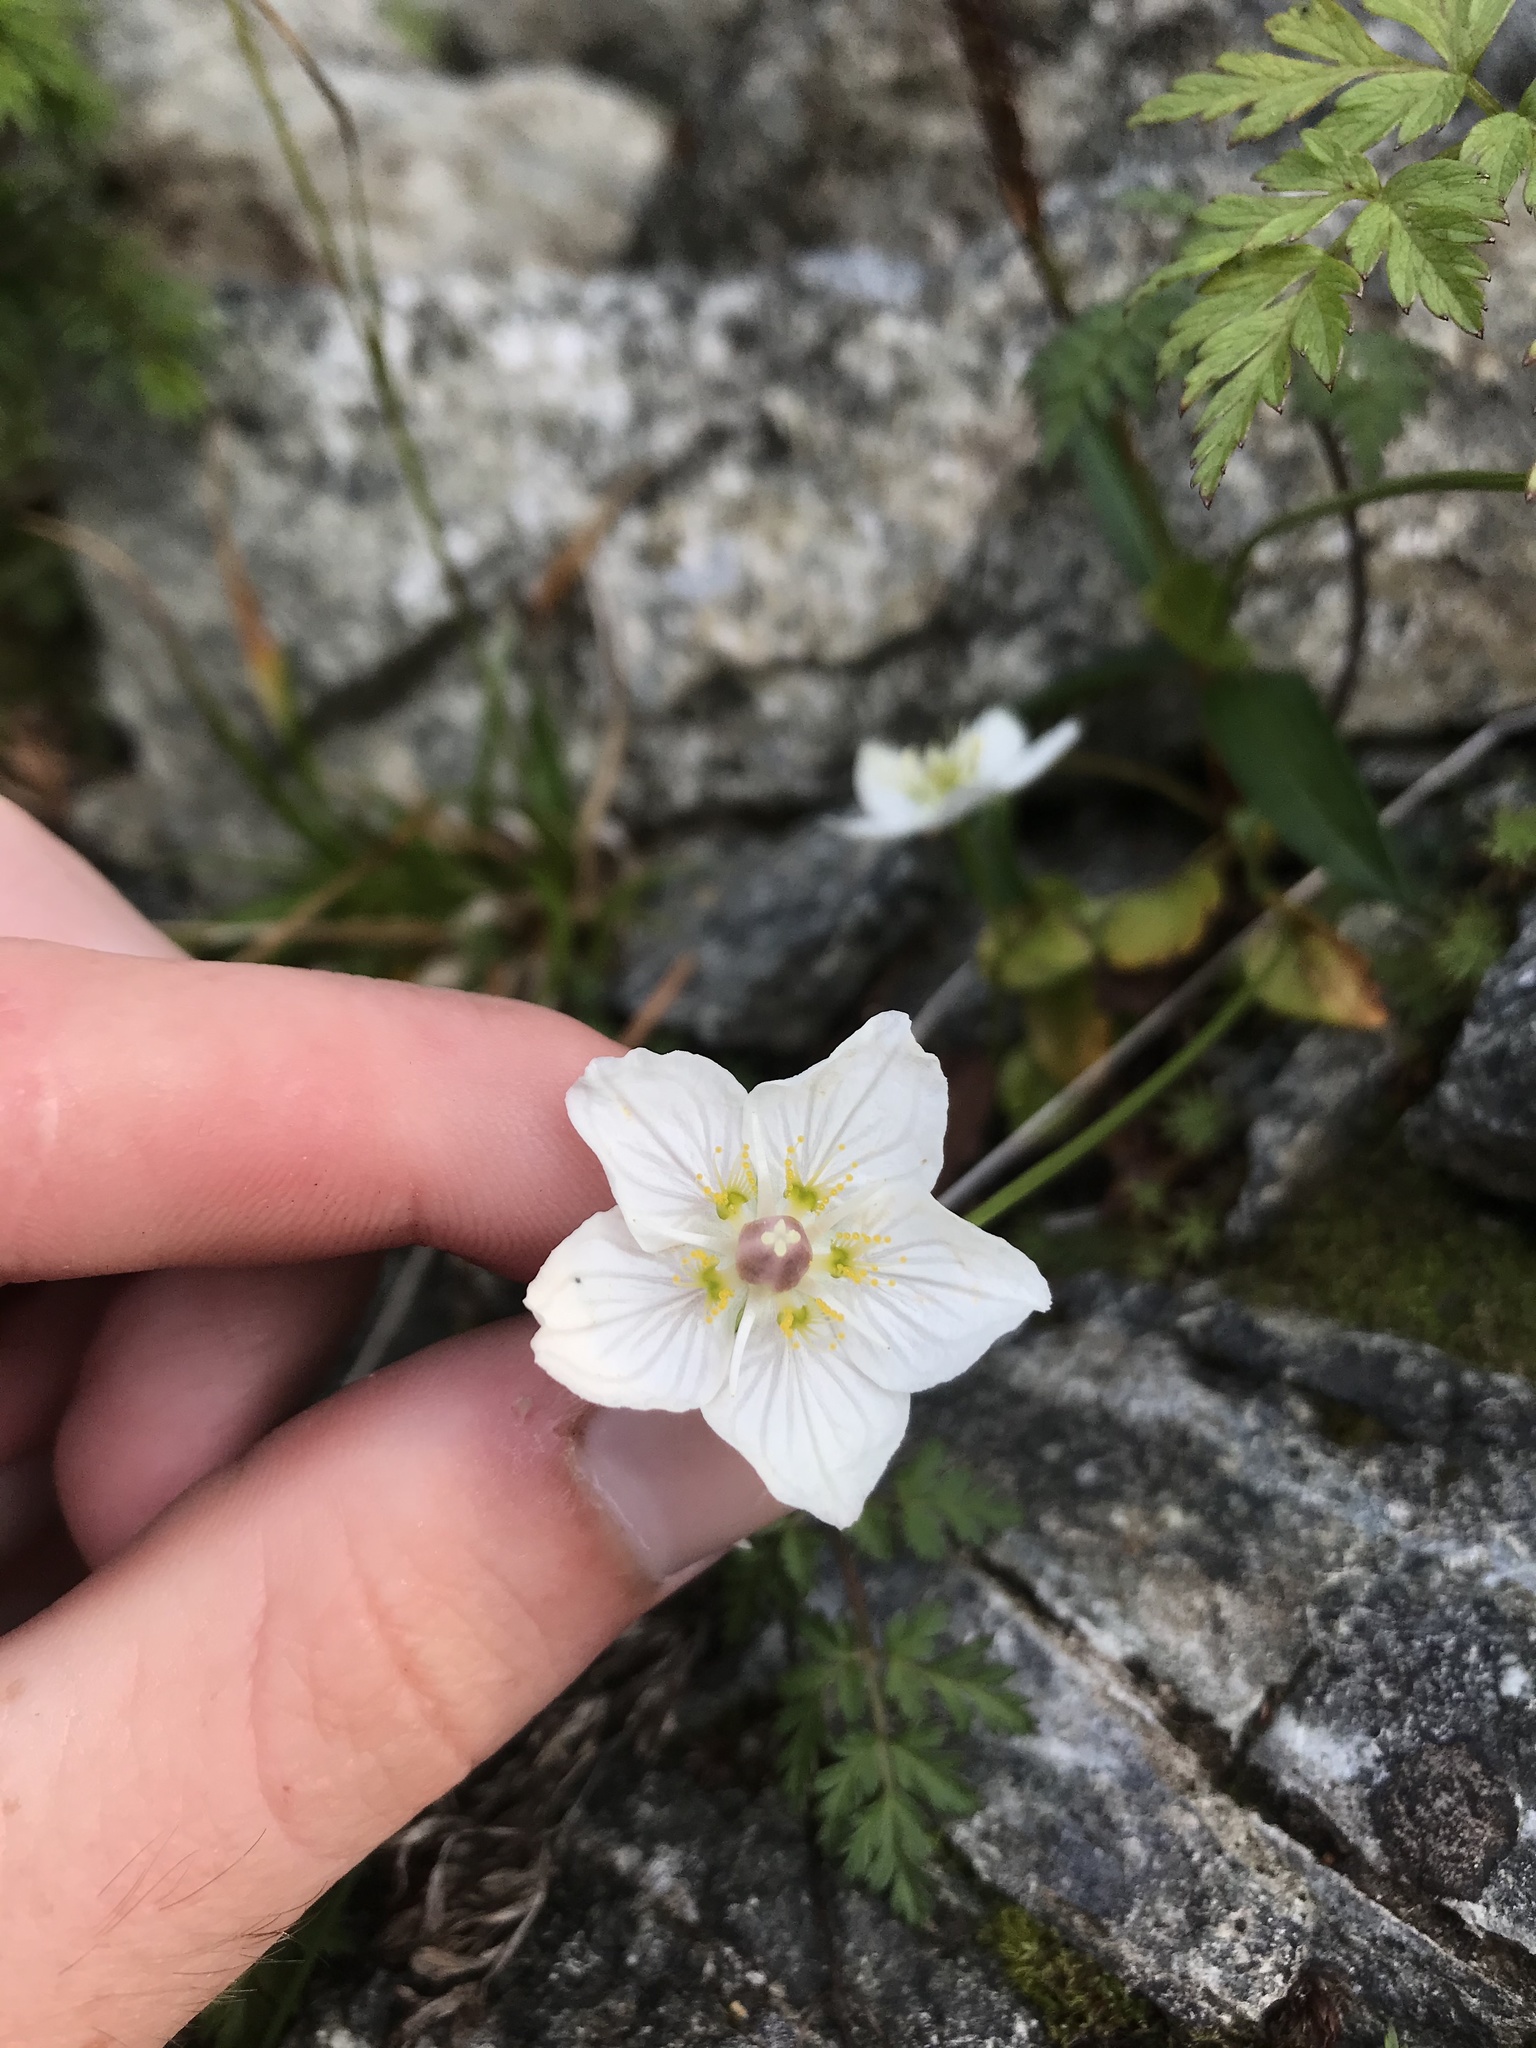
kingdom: Plantae
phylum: Tracheophyta
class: Magnoliopsida
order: Celastrales
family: Parnassiaceae
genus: Parnassia
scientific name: Parnassia palustris
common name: Grass-of-parnassus
